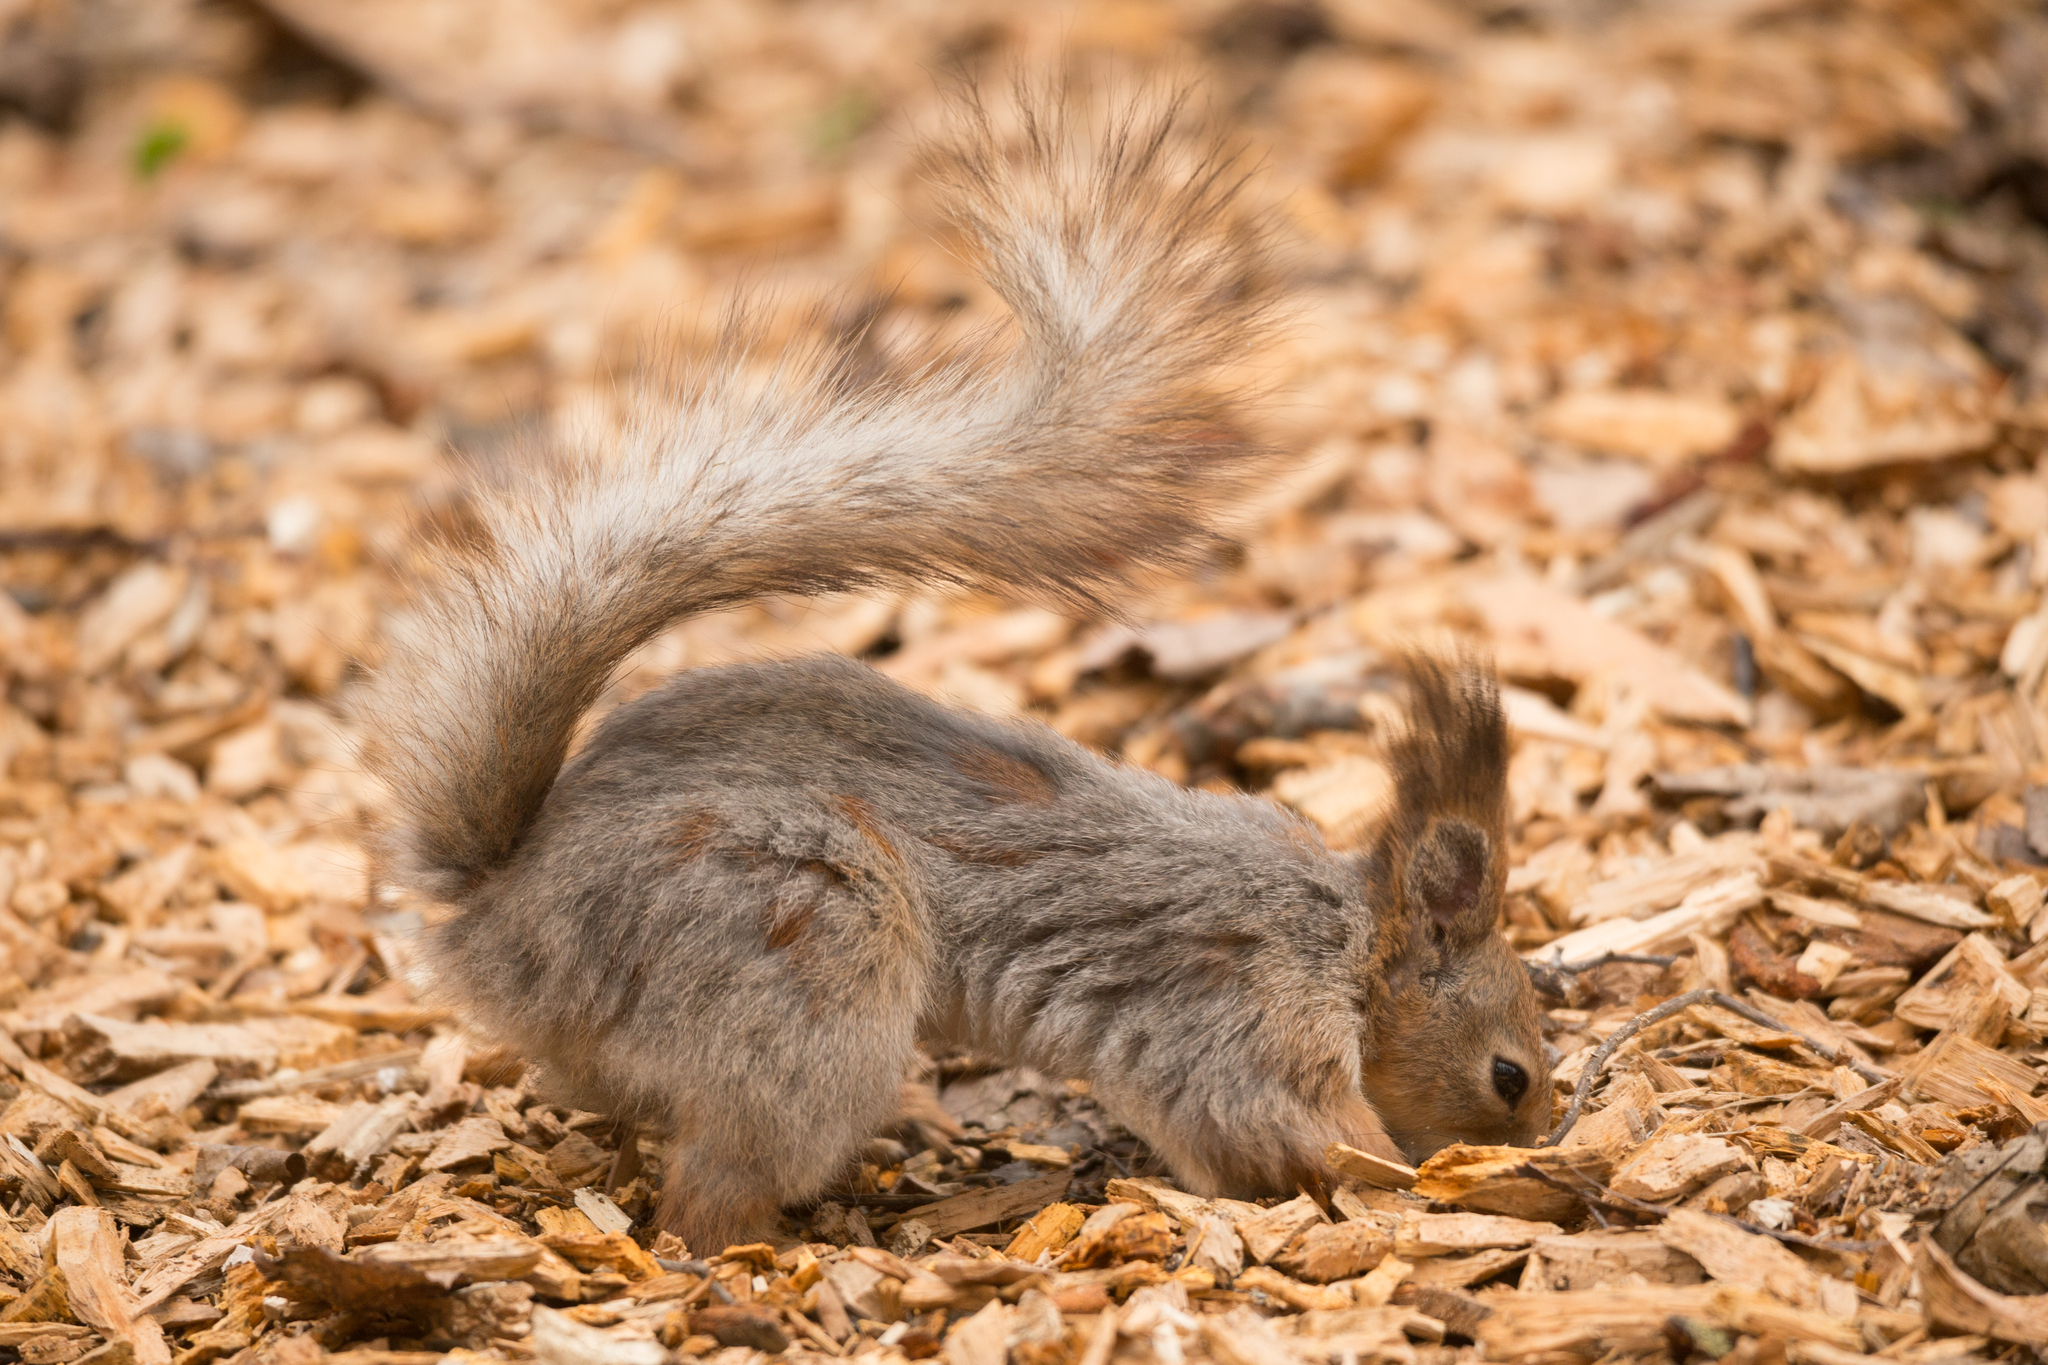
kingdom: Animalia
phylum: Chordata
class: Mammalia
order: Rodentia
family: Sciuridae
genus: Sciurus
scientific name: Sciurus vulgaris
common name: Eurasian red squirrel
